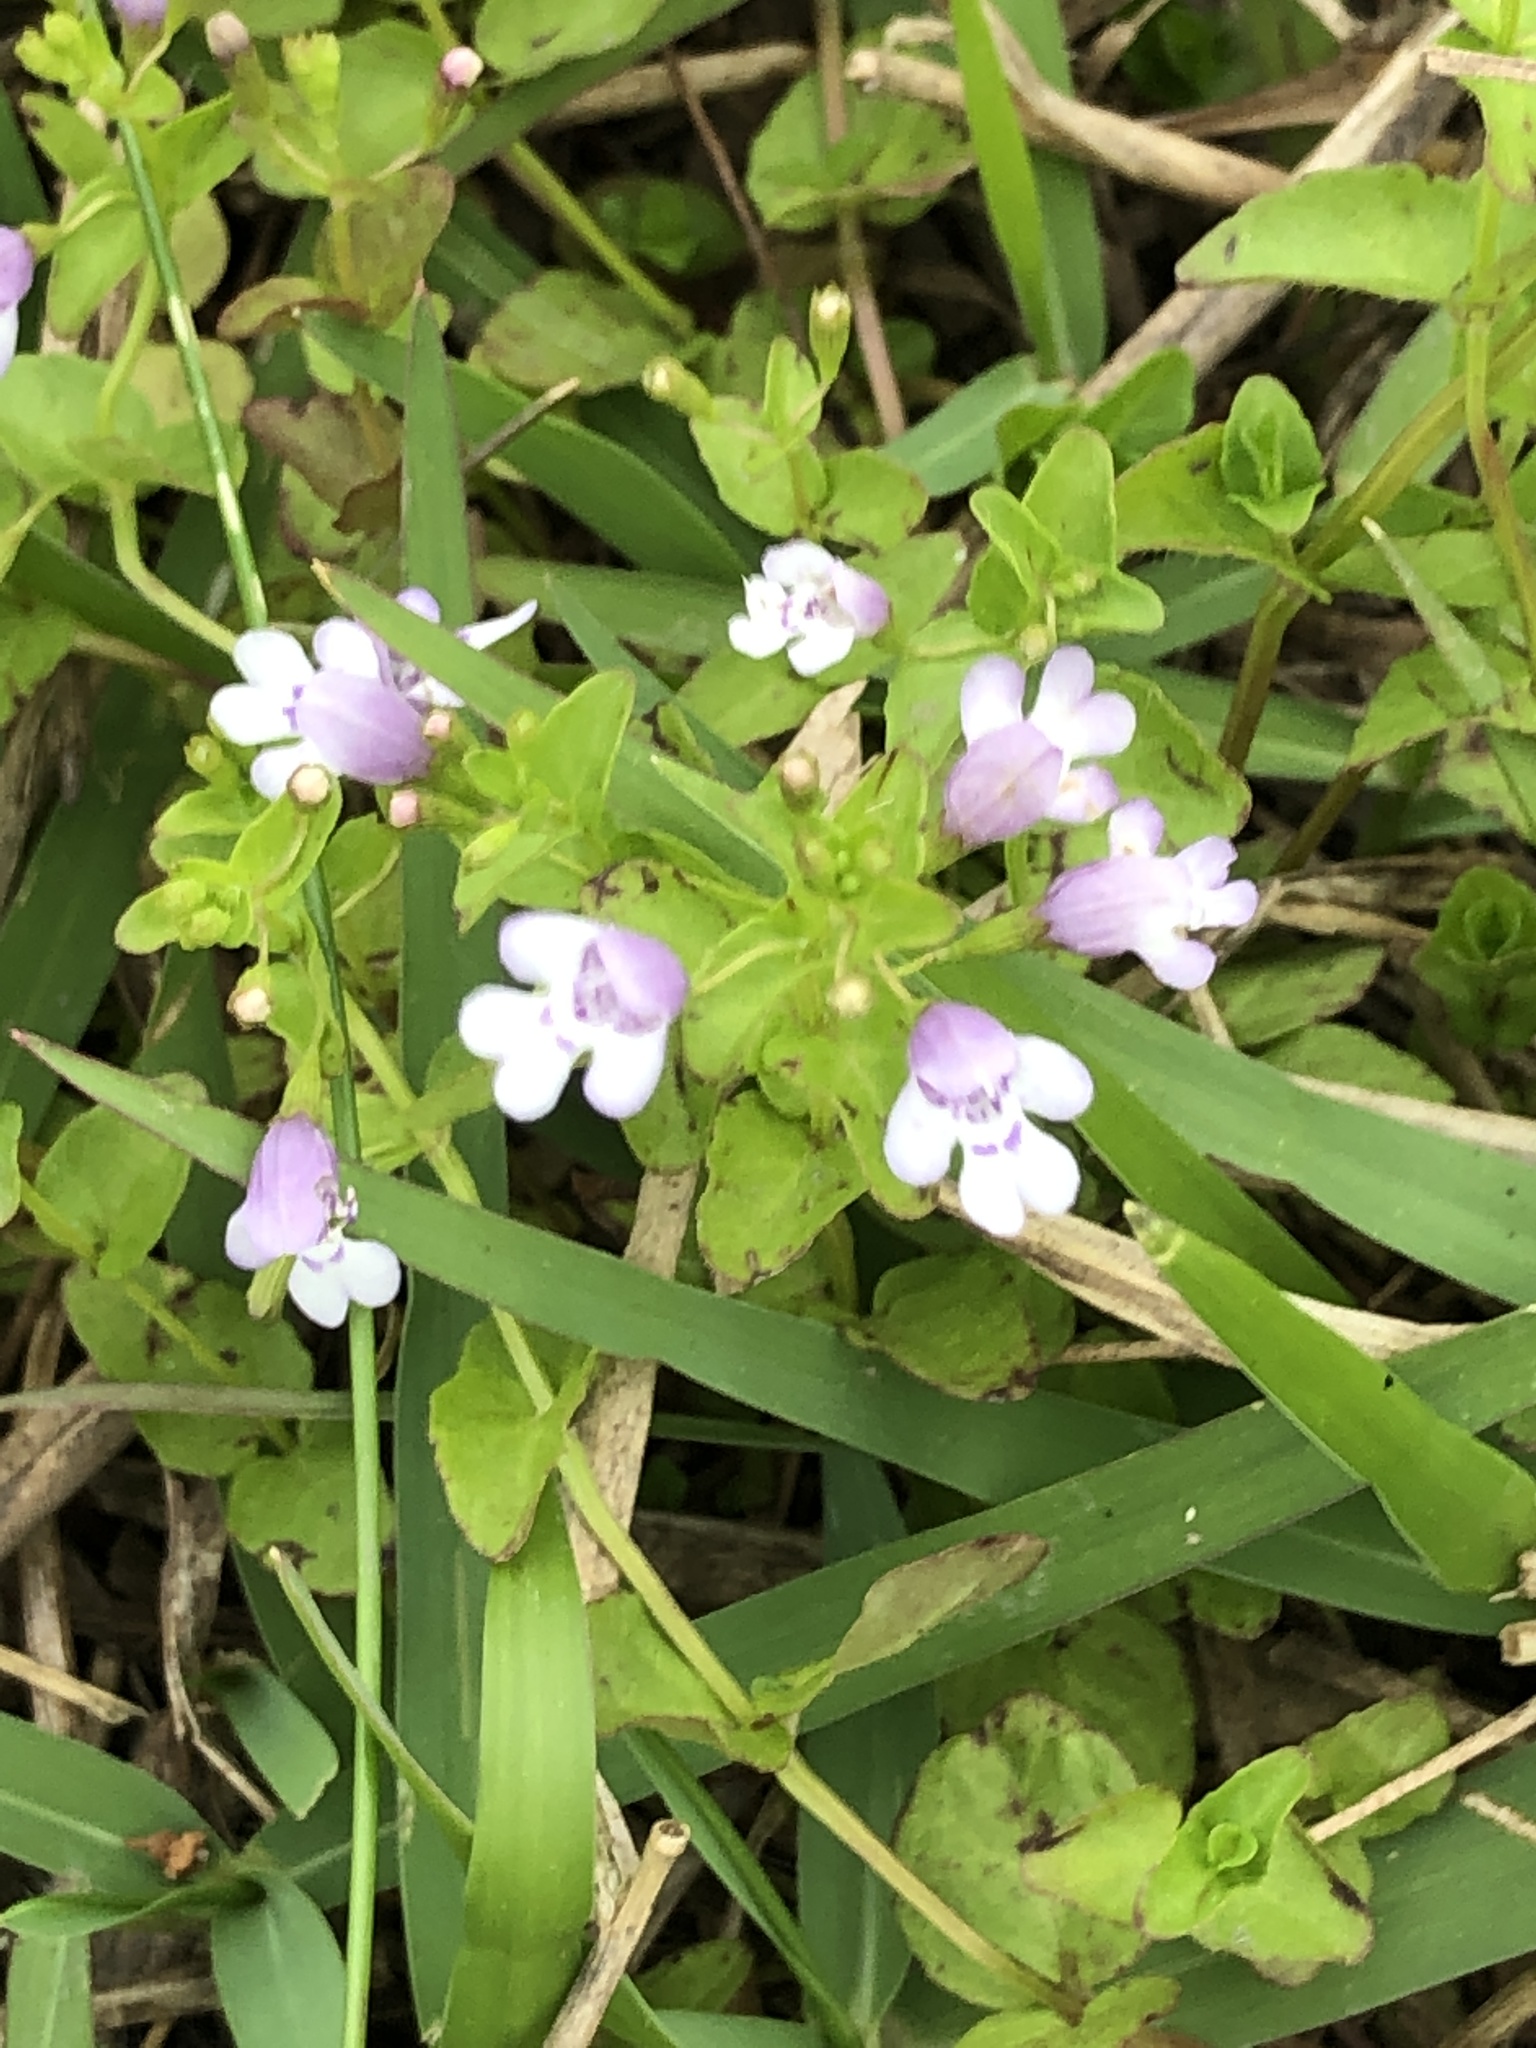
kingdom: Plantae
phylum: Tracheophyta
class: Magnoliopsida
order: Lamiales
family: Lamiaceae
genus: Clinopodium
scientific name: Clinopodium brownei
